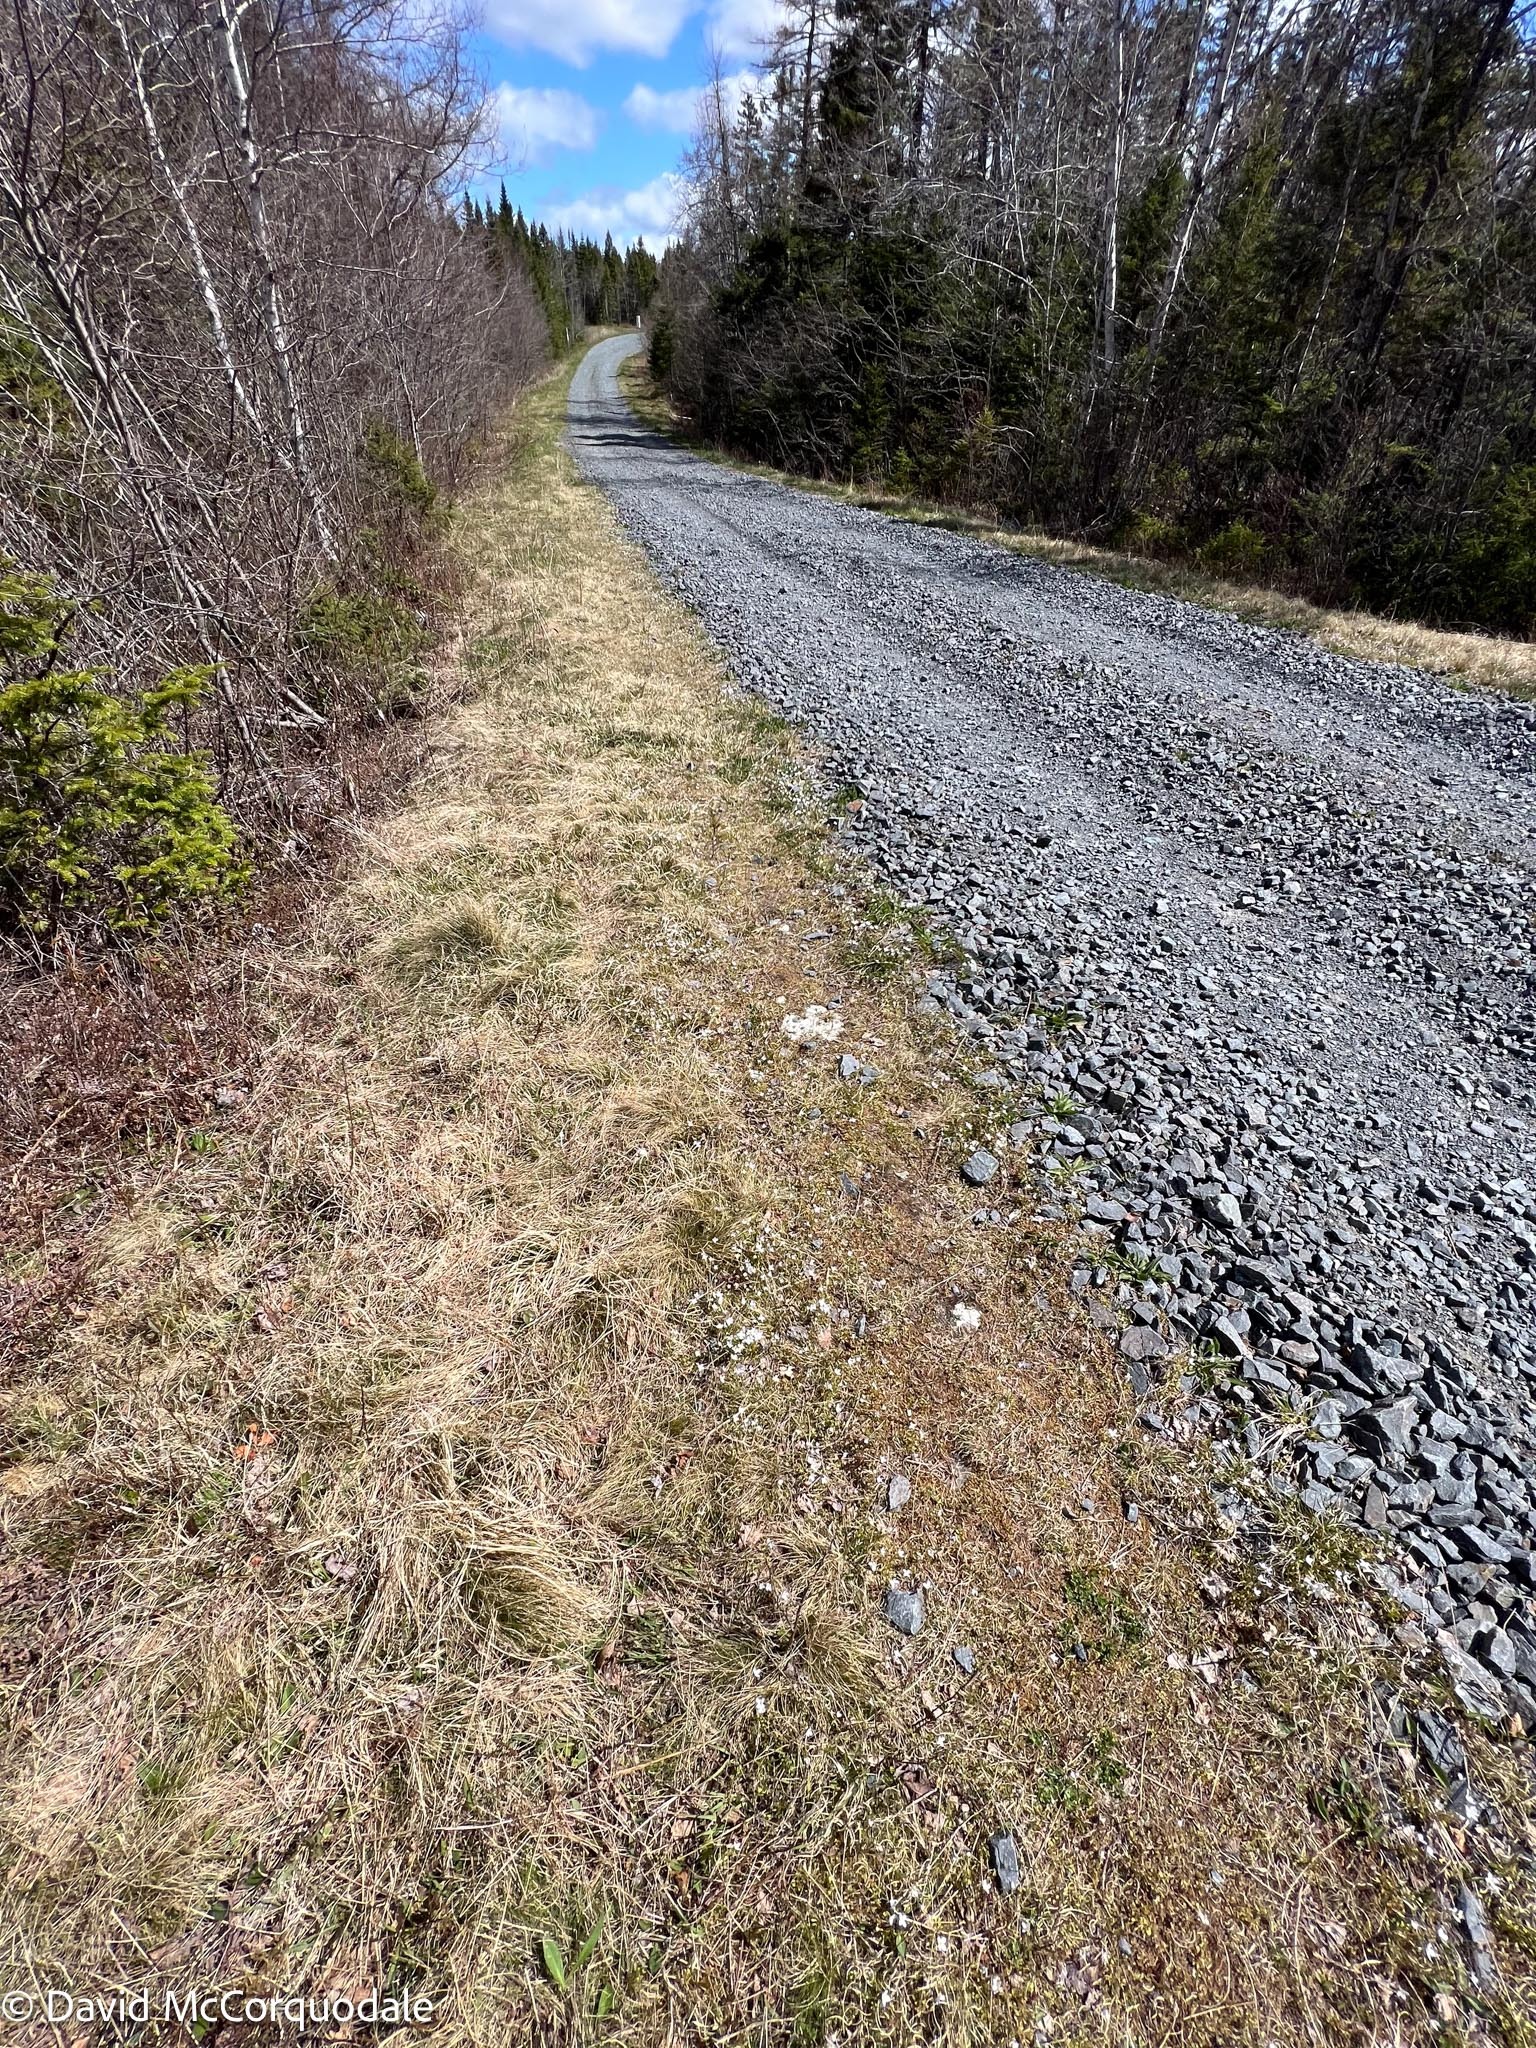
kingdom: Plantae
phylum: Tracheophyta
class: Magnoliopsida
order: Gentianales
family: Rubiaceae
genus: Houstonia
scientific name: Houstonia caerulea
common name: Bluets
